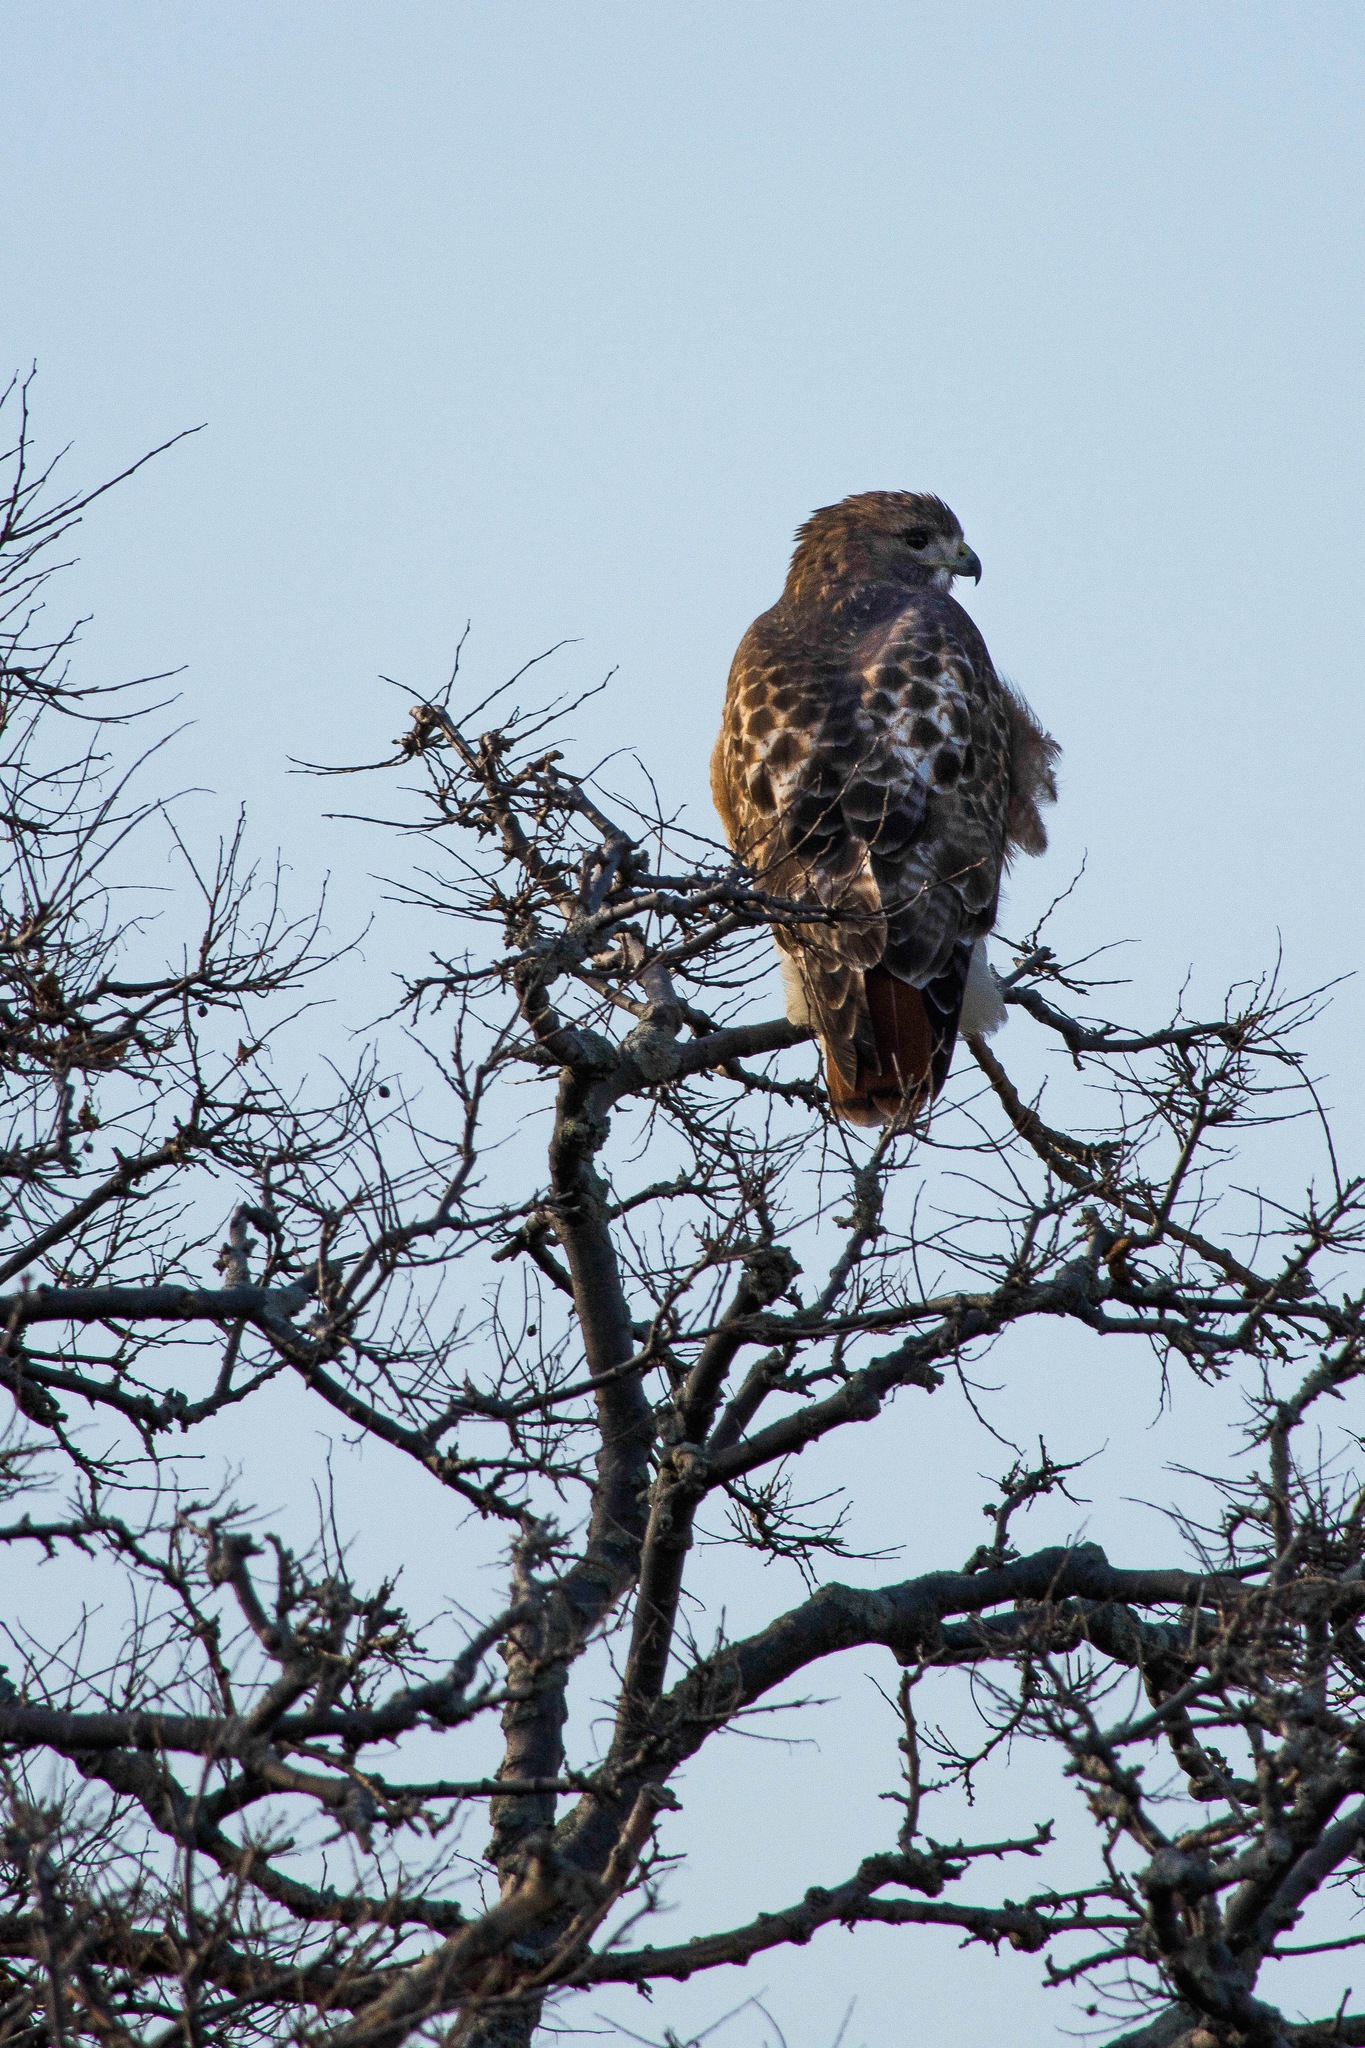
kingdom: Animalia
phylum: Chordata
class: Aves
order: Accipitriformes
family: Accipitridae
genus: Buteo
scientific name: Buteo jamaicensis
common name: Red-tailed hawk
